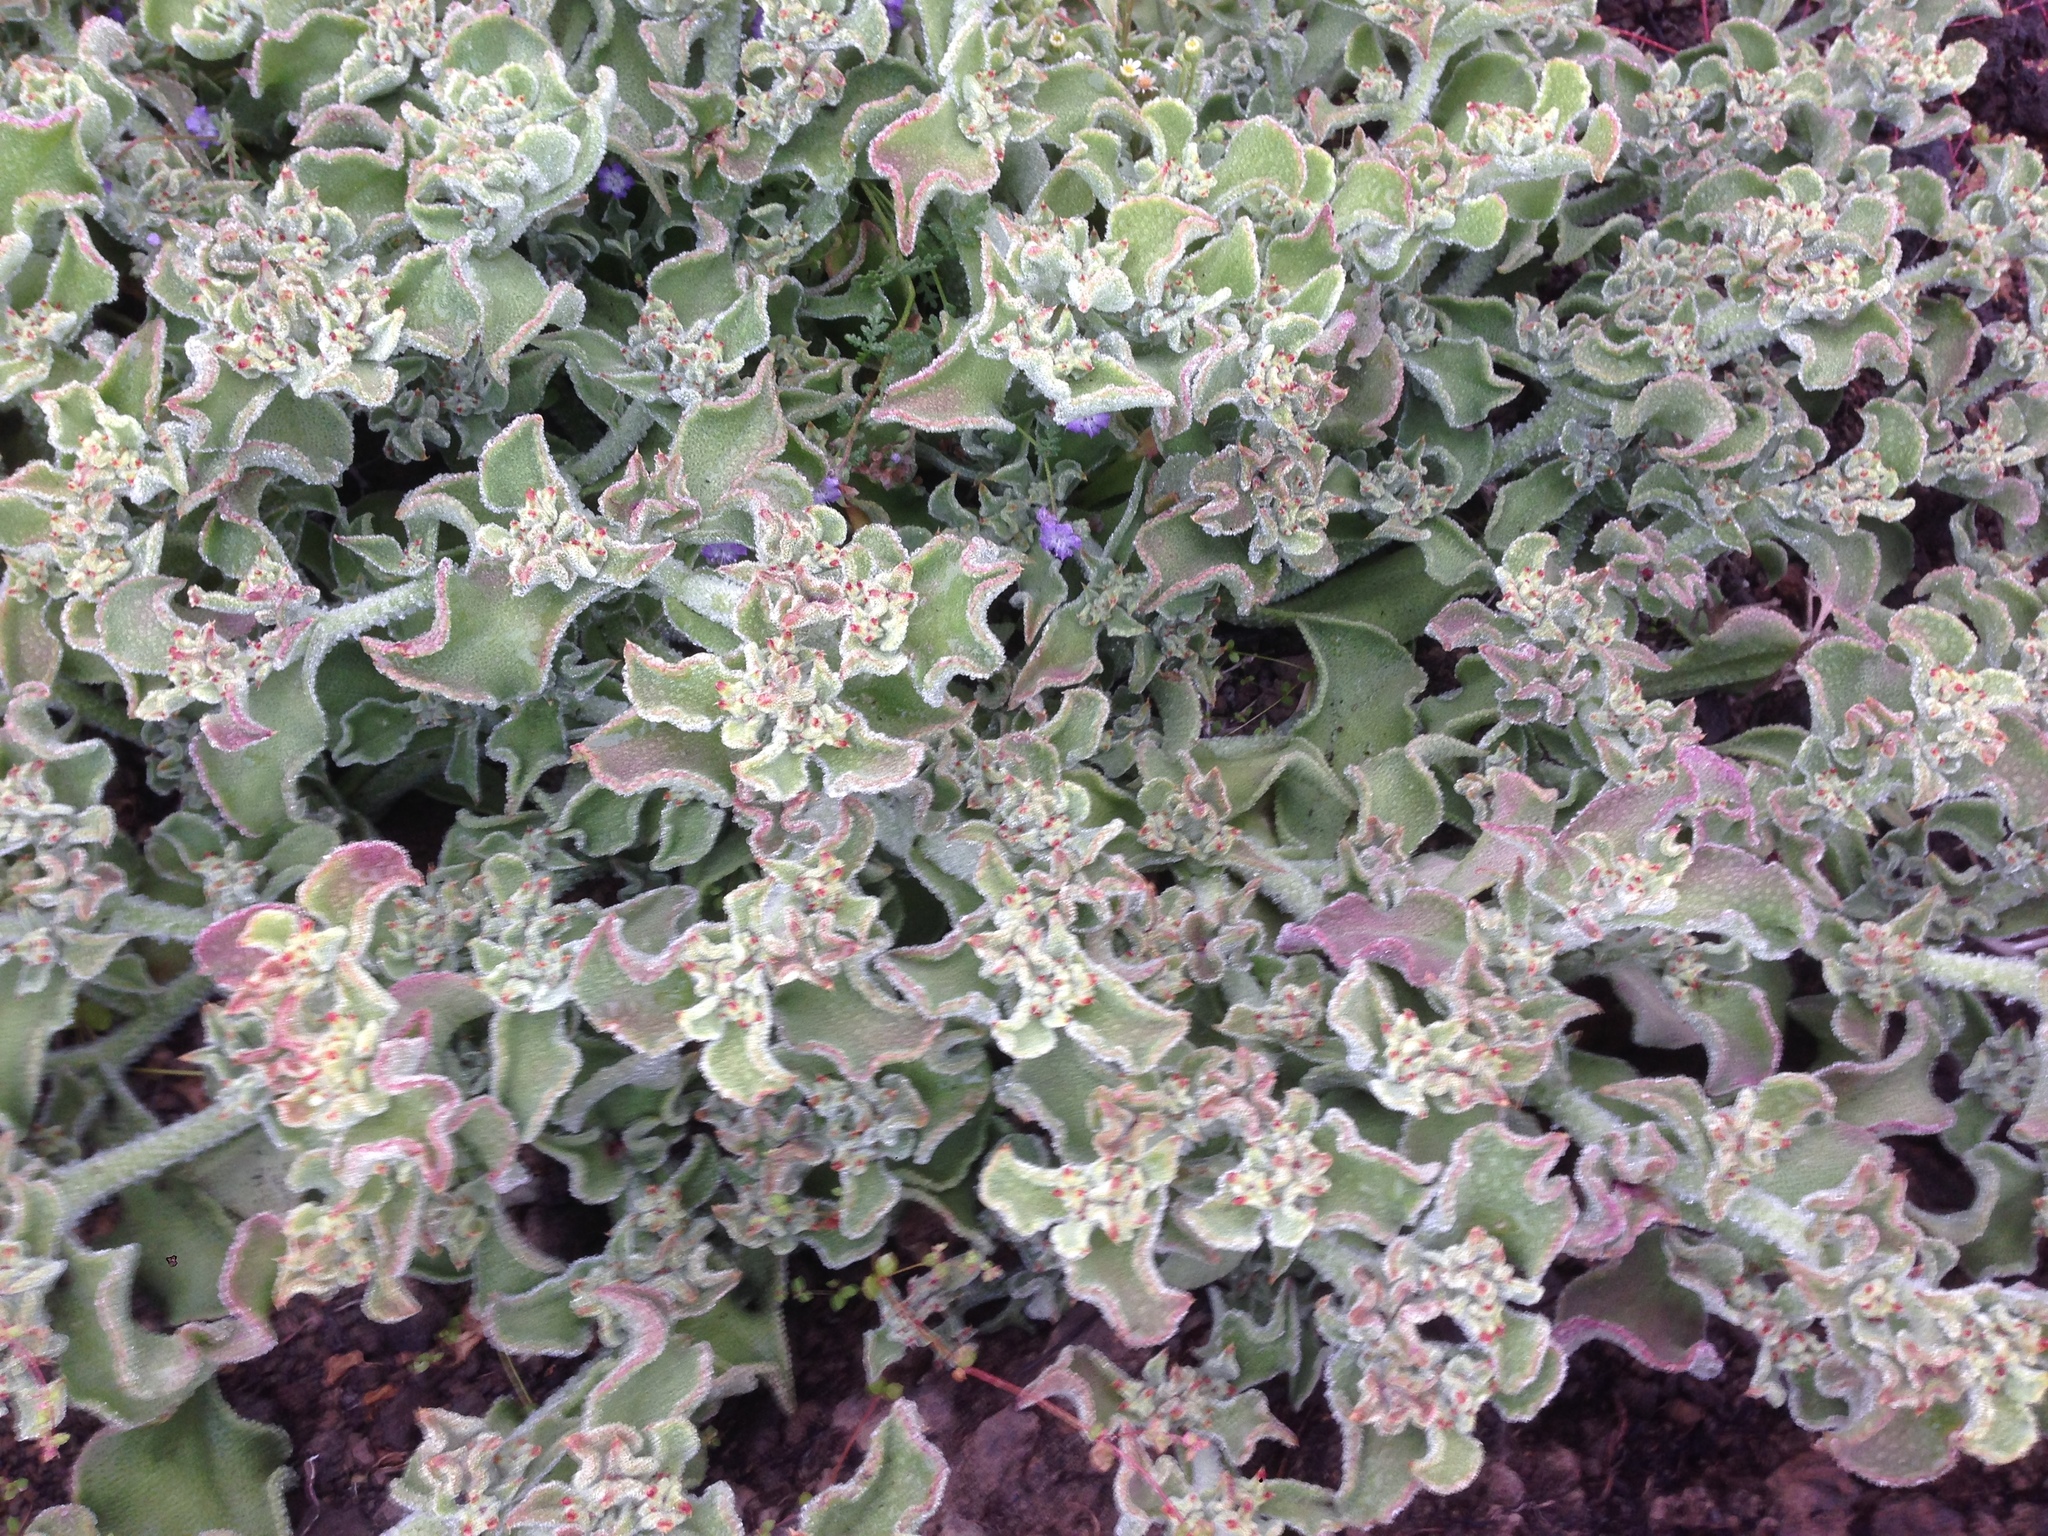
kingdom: Plantae
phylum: Tracheophyta
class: Magnoliopsida
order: Caryophyllales
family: Aizoaceae
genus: Mesembryanthemum
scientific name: Mesembryanthemum crystallinum
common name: Common iceplant
